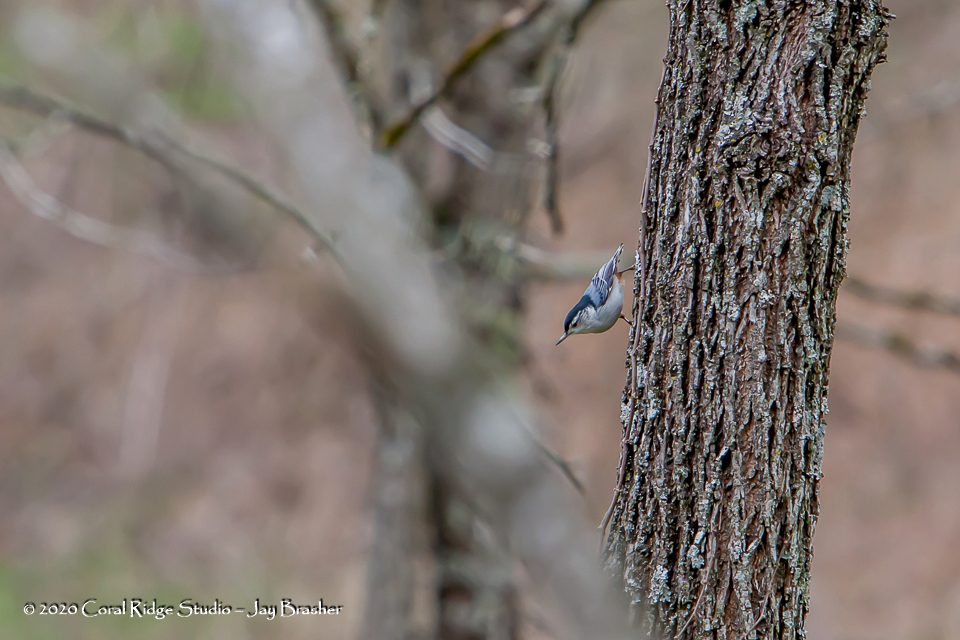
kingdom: Animalia
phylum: Chordata
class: Aves
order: Passeriformes
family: Sittidae
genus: Sitta
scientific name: Sitta carolinensis
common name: White-breasted nuthatch
